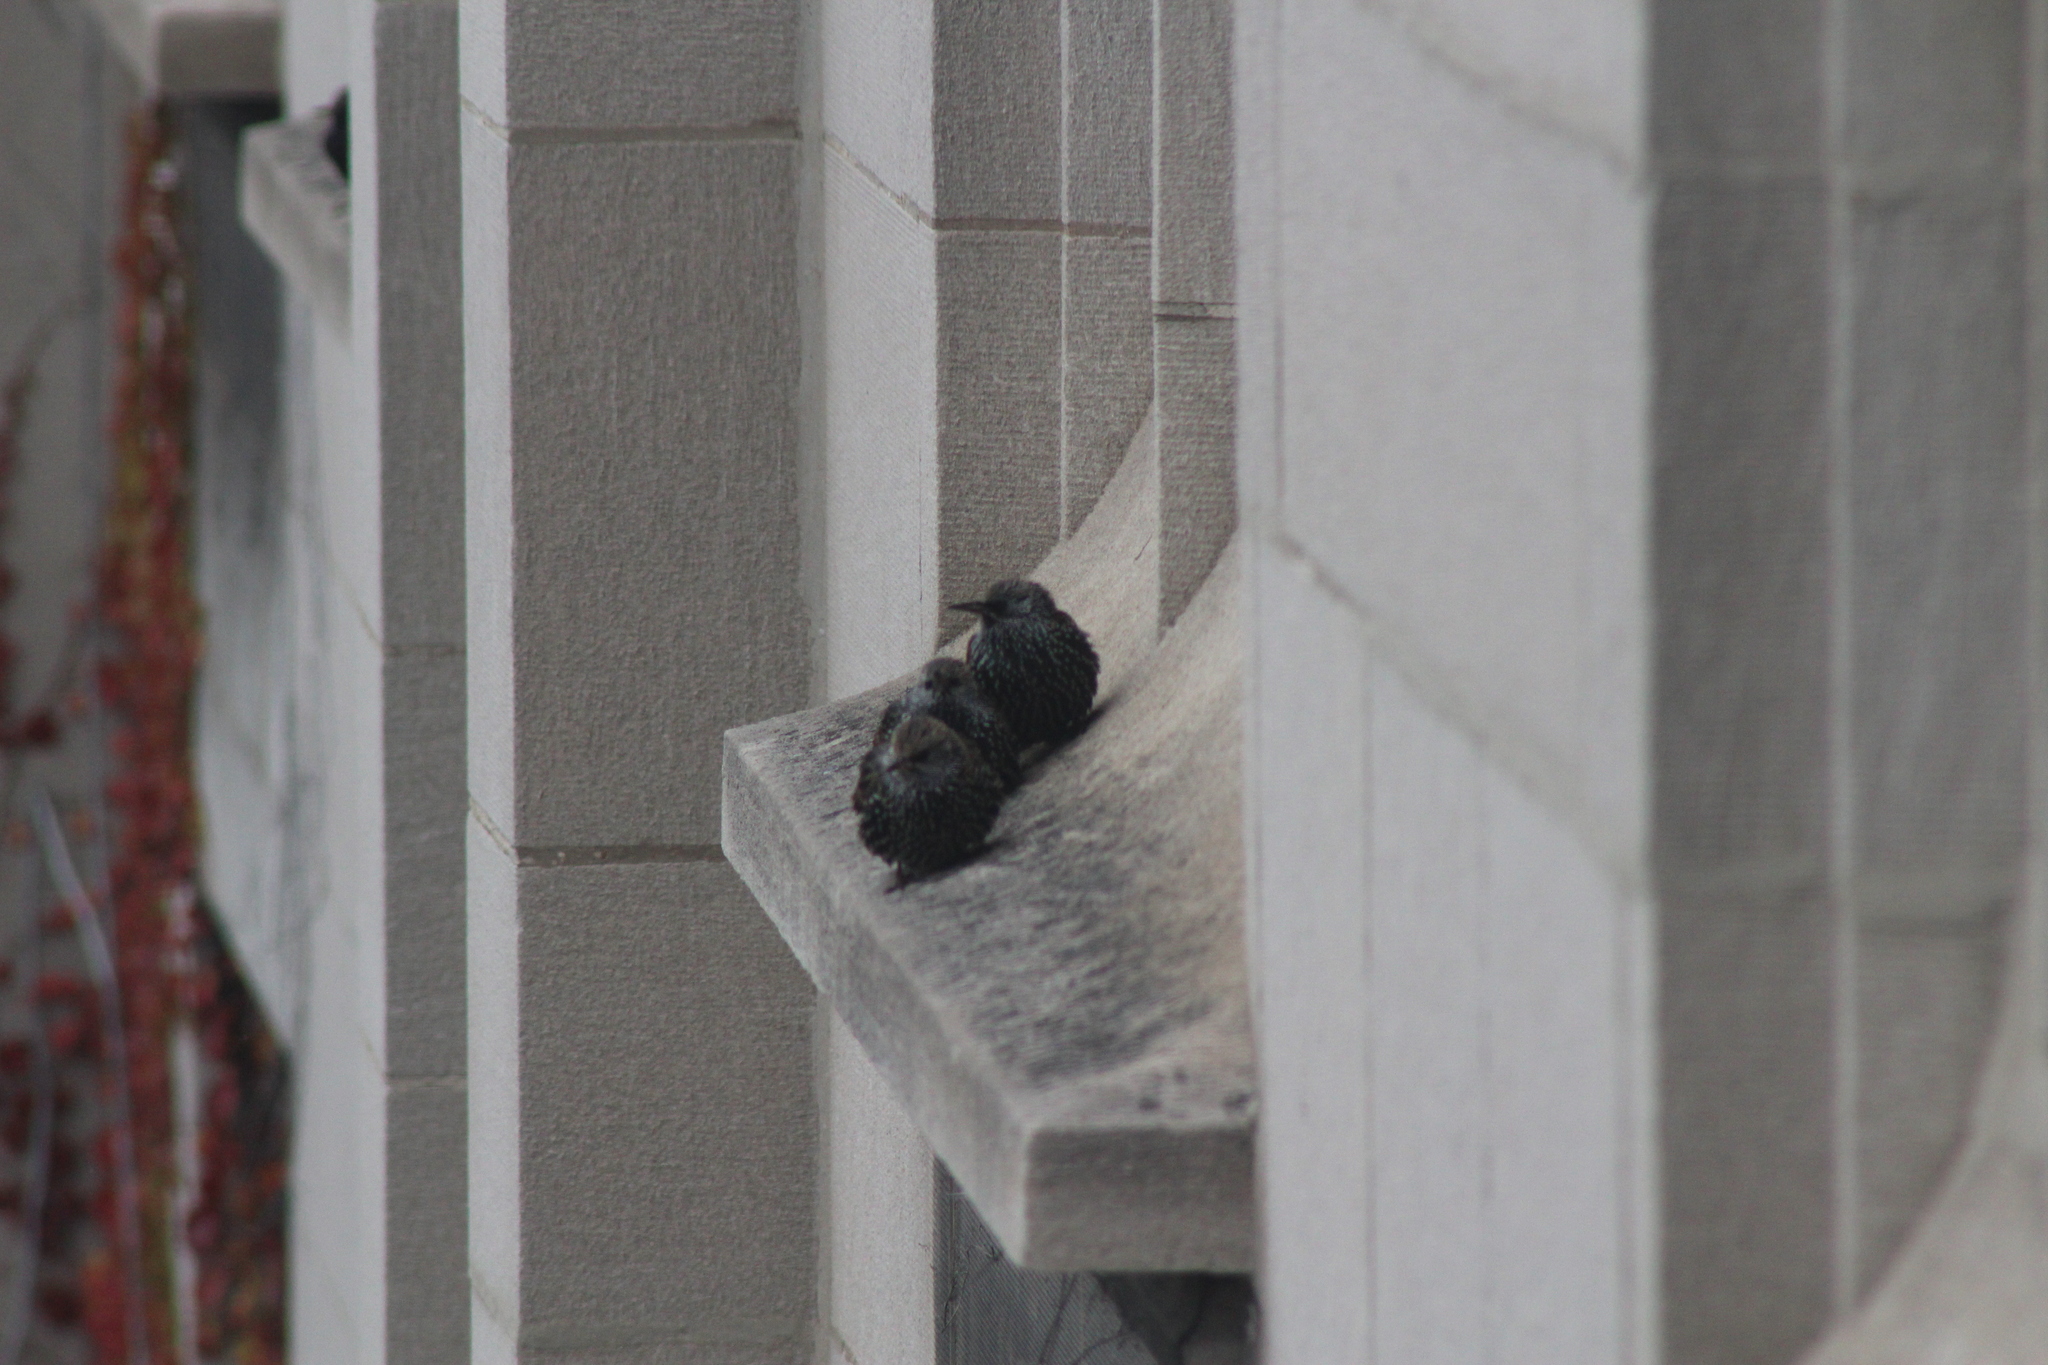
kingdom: Animalia
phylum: Chordata
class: Aves
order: Passeriformes
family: Sturnidae
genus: Sturnus
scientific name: Sturnus vulgaris
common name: Common starling
